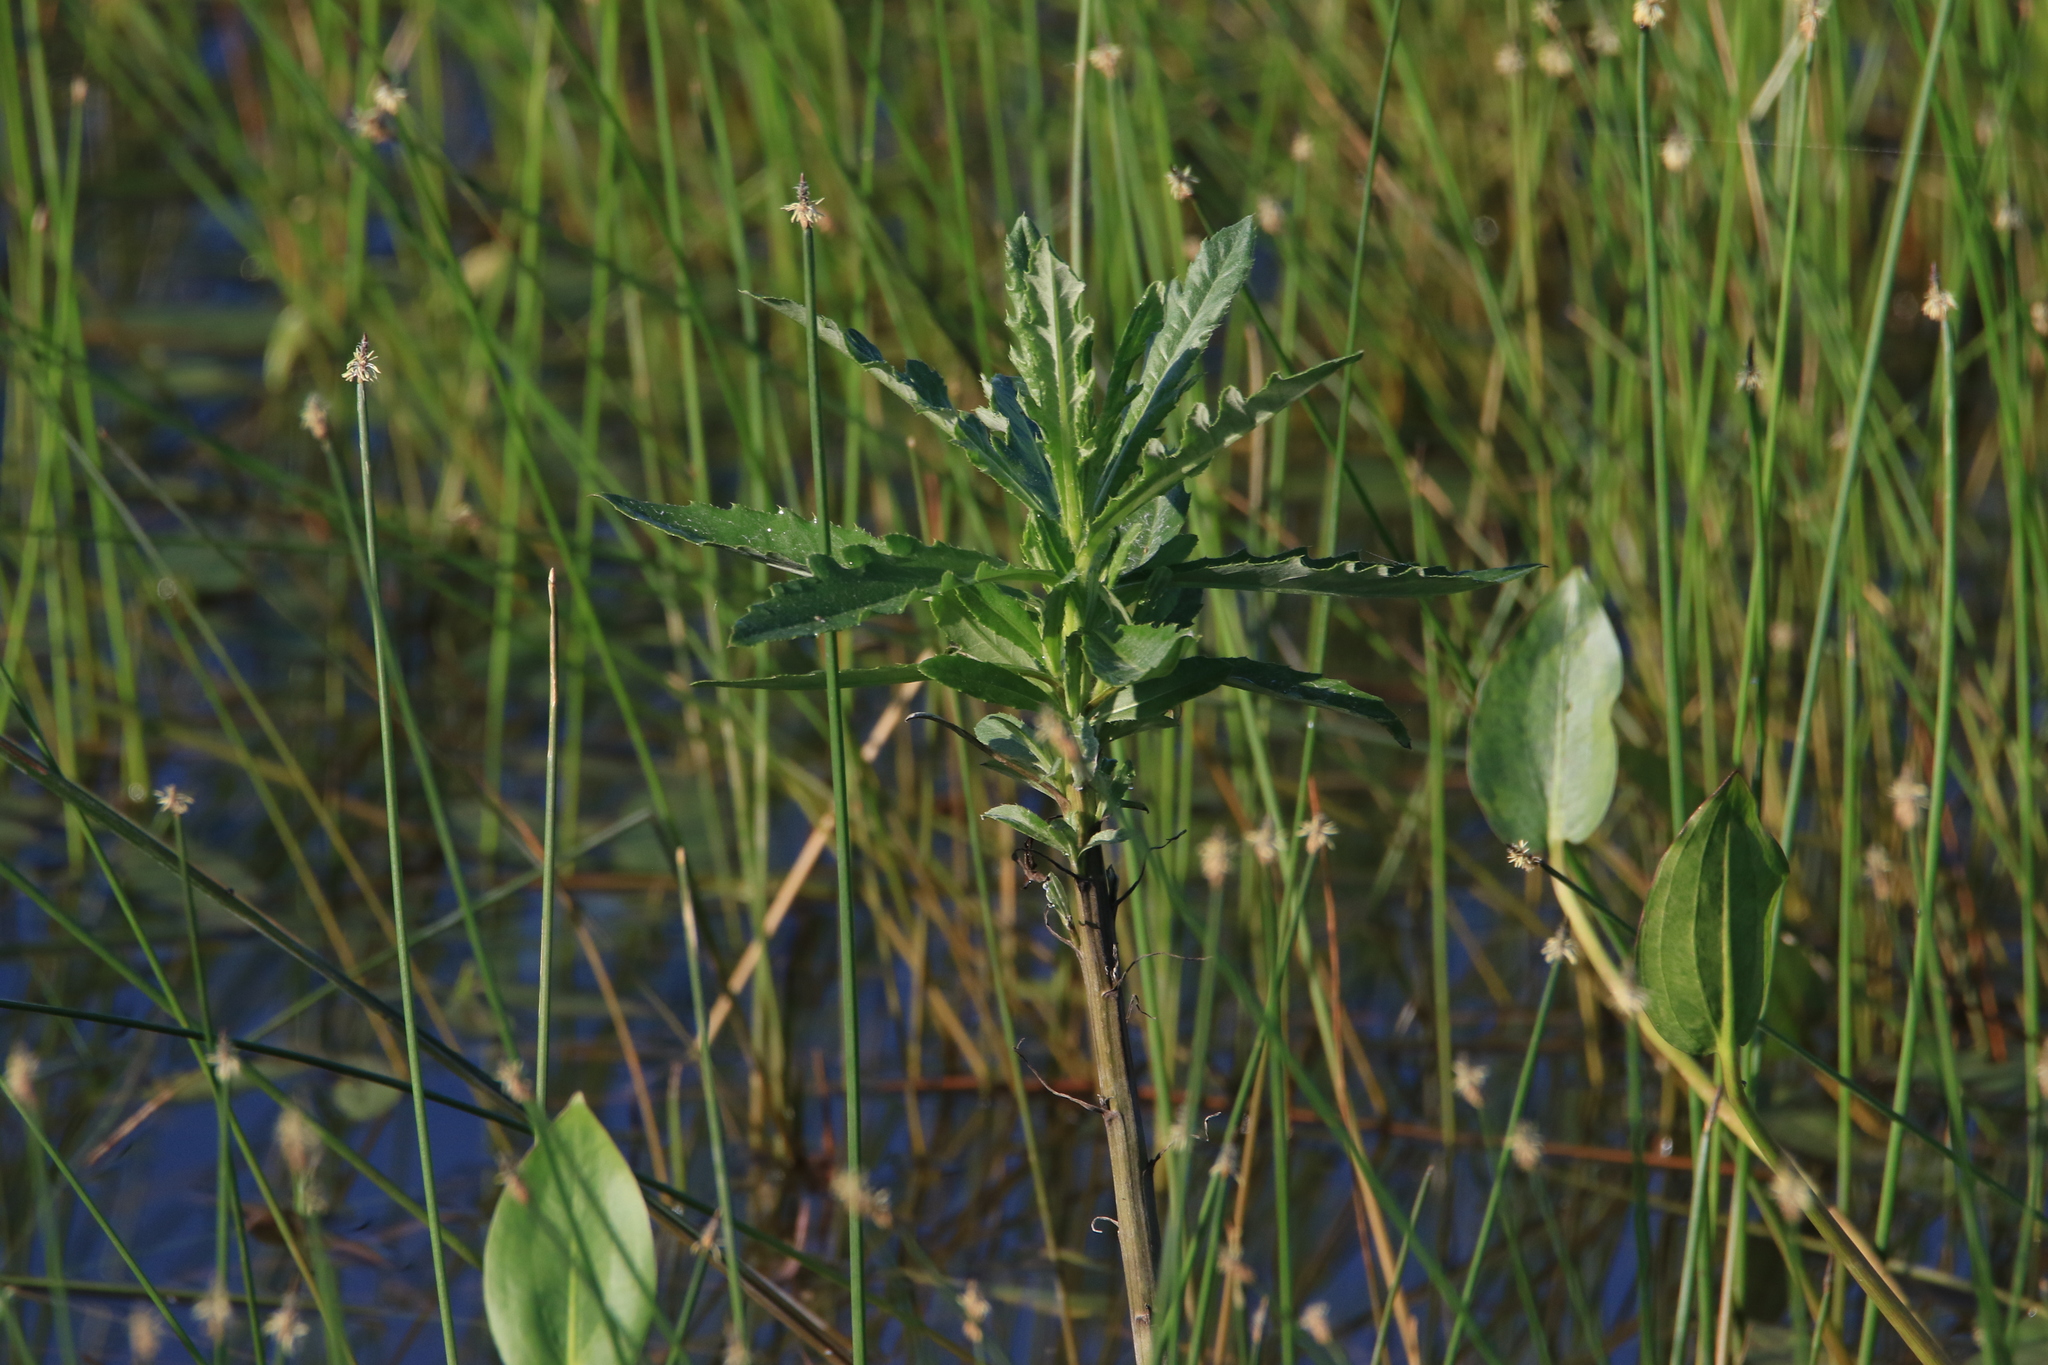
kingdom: Plantae
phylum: Tracheophyta
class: Magnoliopsida
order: Asterales
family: Asteraceae
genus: Cirsium
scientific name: Cirsium arvense
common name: Creeping thistle
